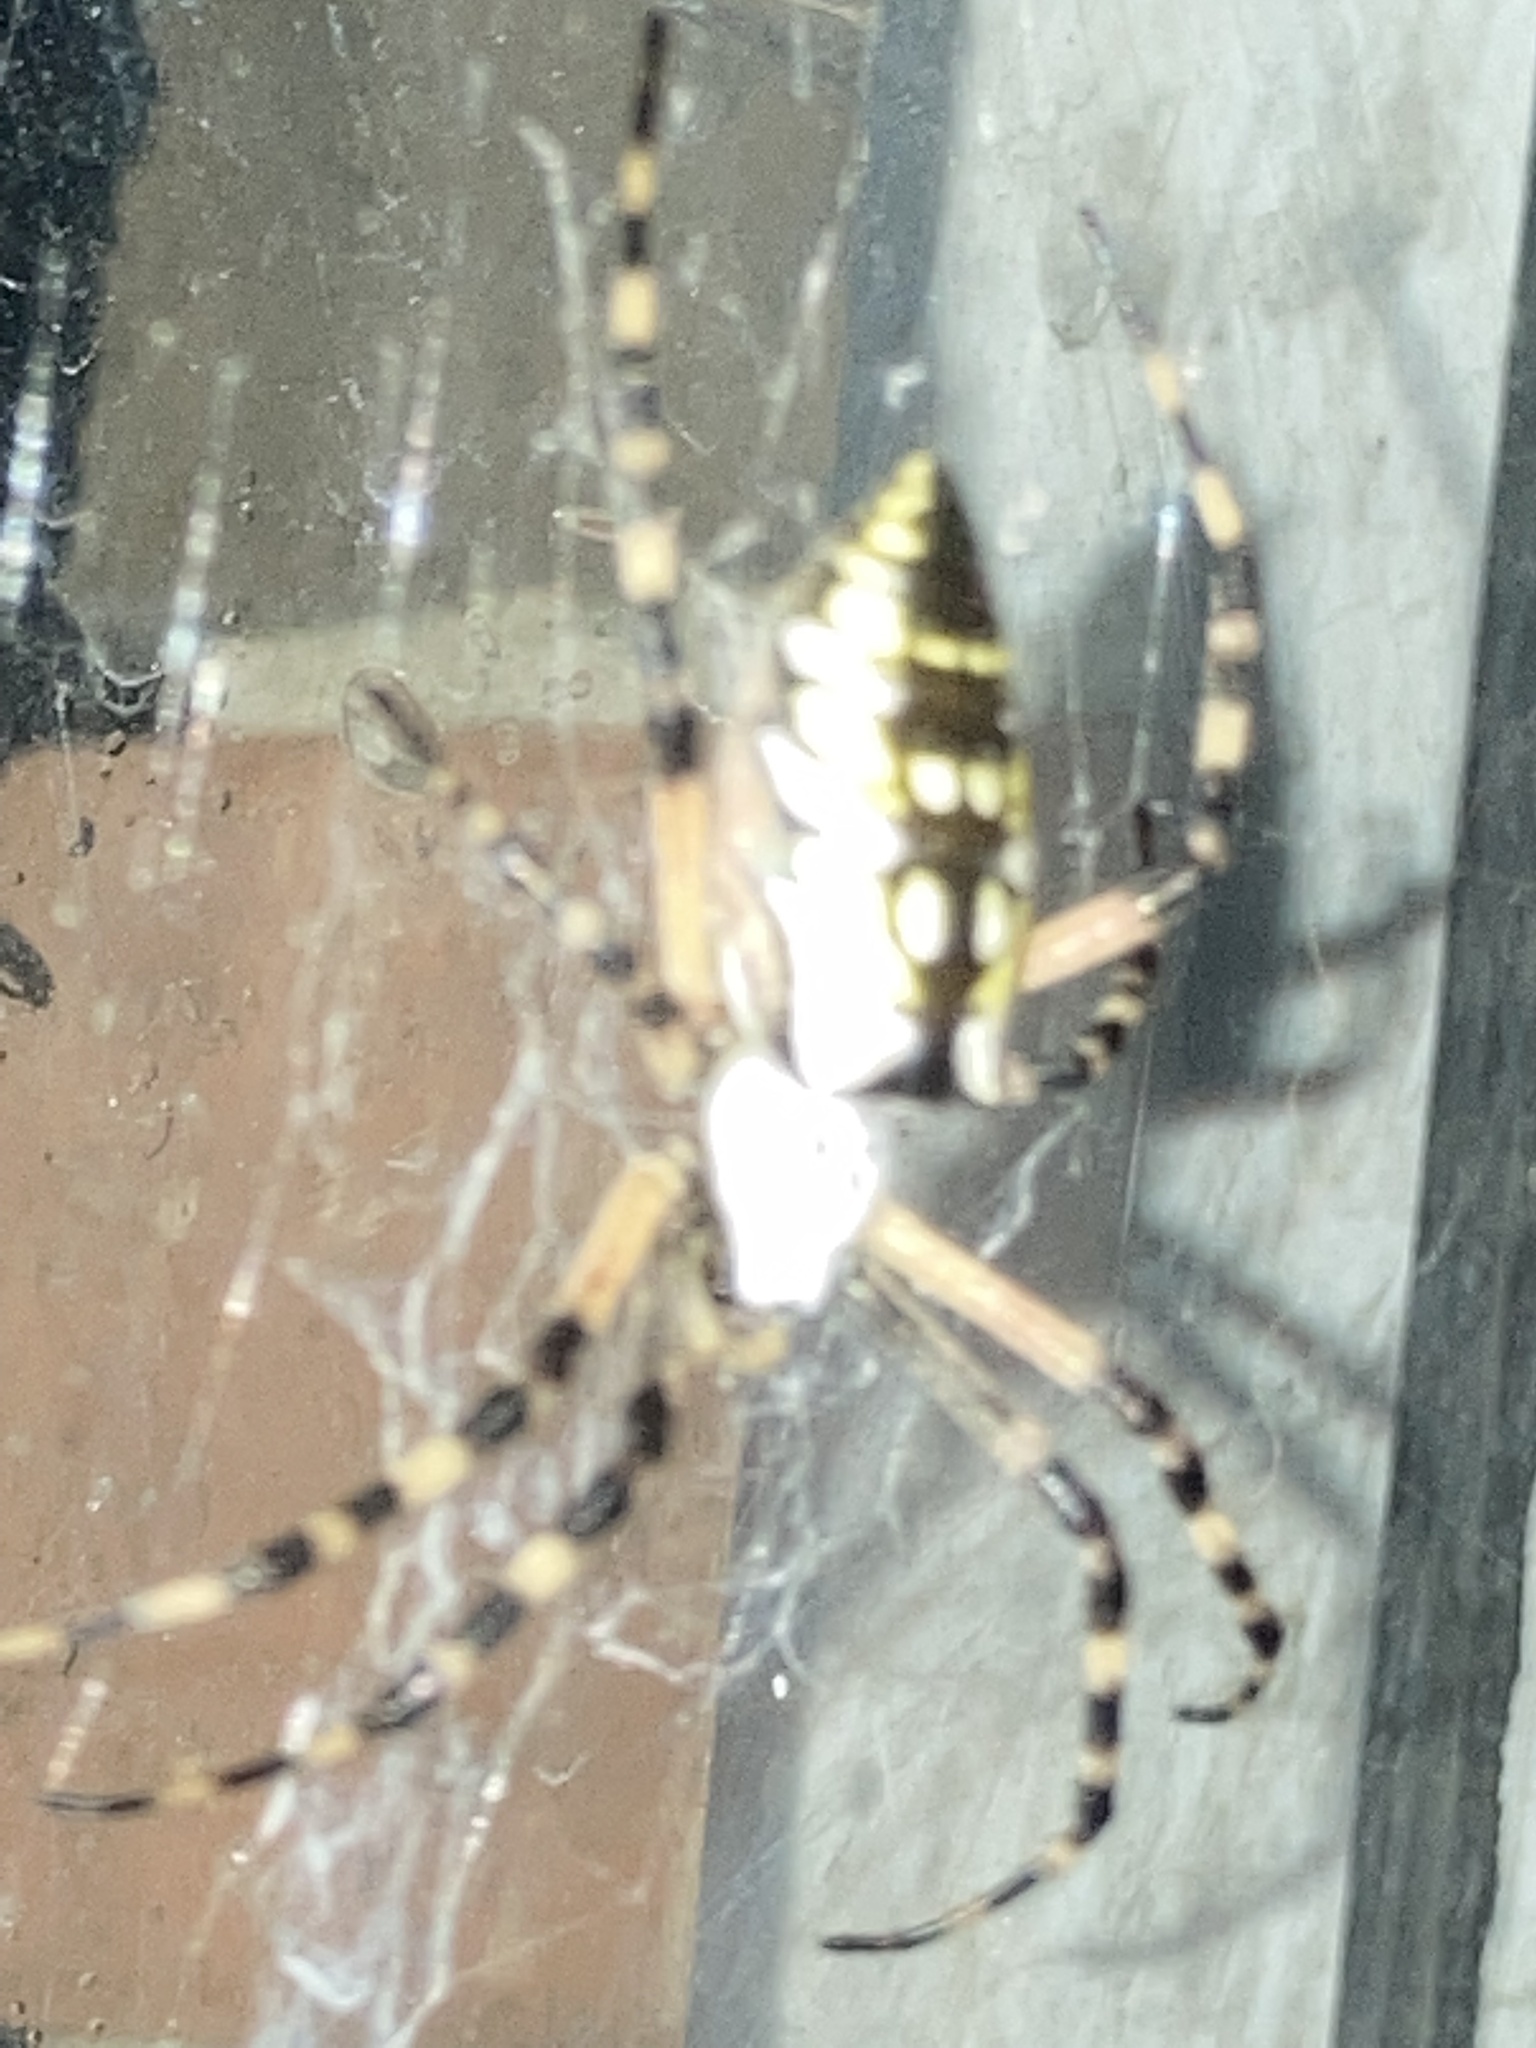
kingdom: Animalia
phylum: Arthropoda
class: Arachnida
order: Araneae
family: Araneidae
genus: Argiope
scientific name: Argiope aurantia
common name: Orb weavers
